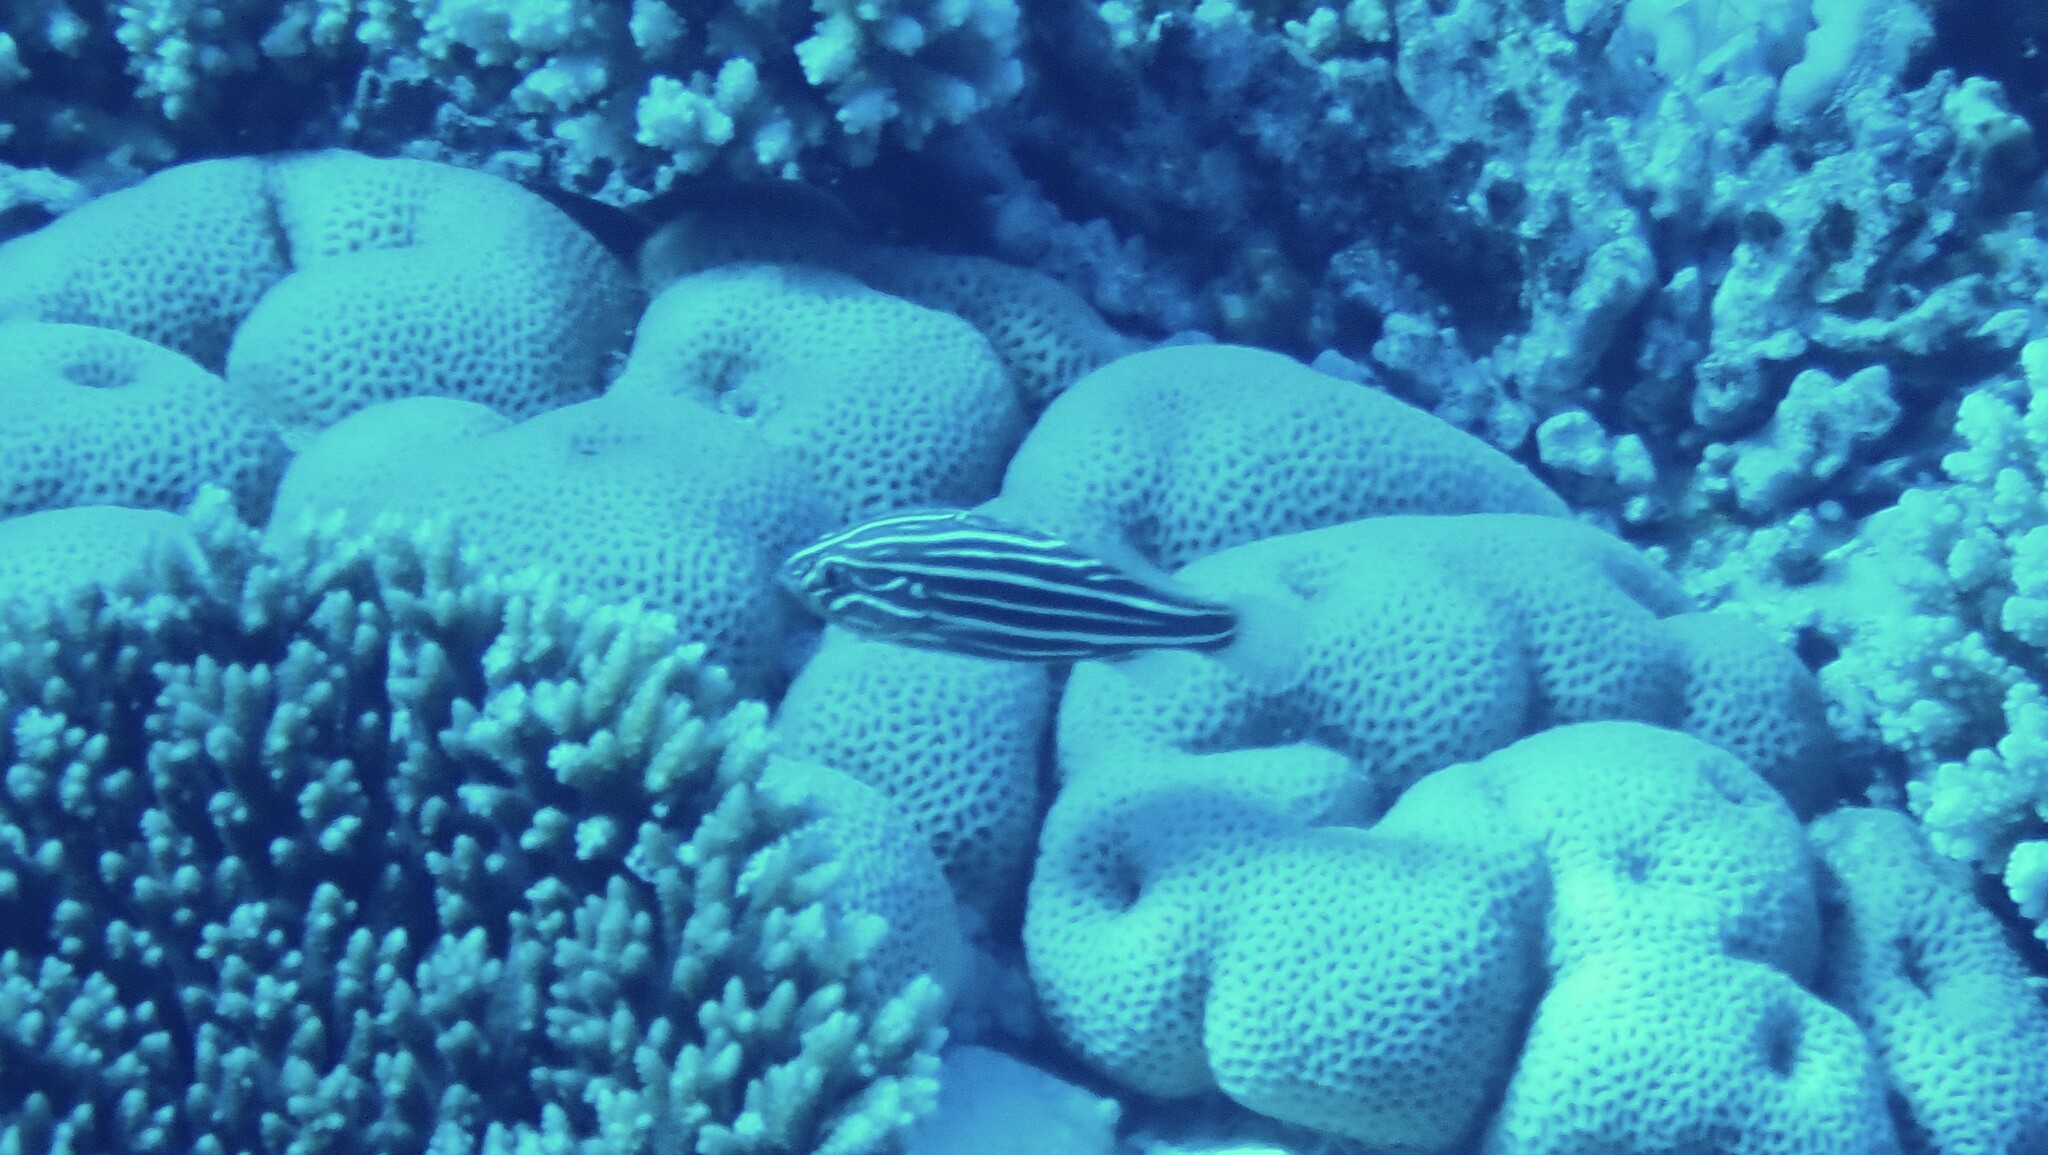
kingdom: Animalia
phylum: Chordata
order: Perciformes
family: Serranidae
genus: Grammistes
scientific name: Grammistes sexlineatus
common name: Sixline soapfish
